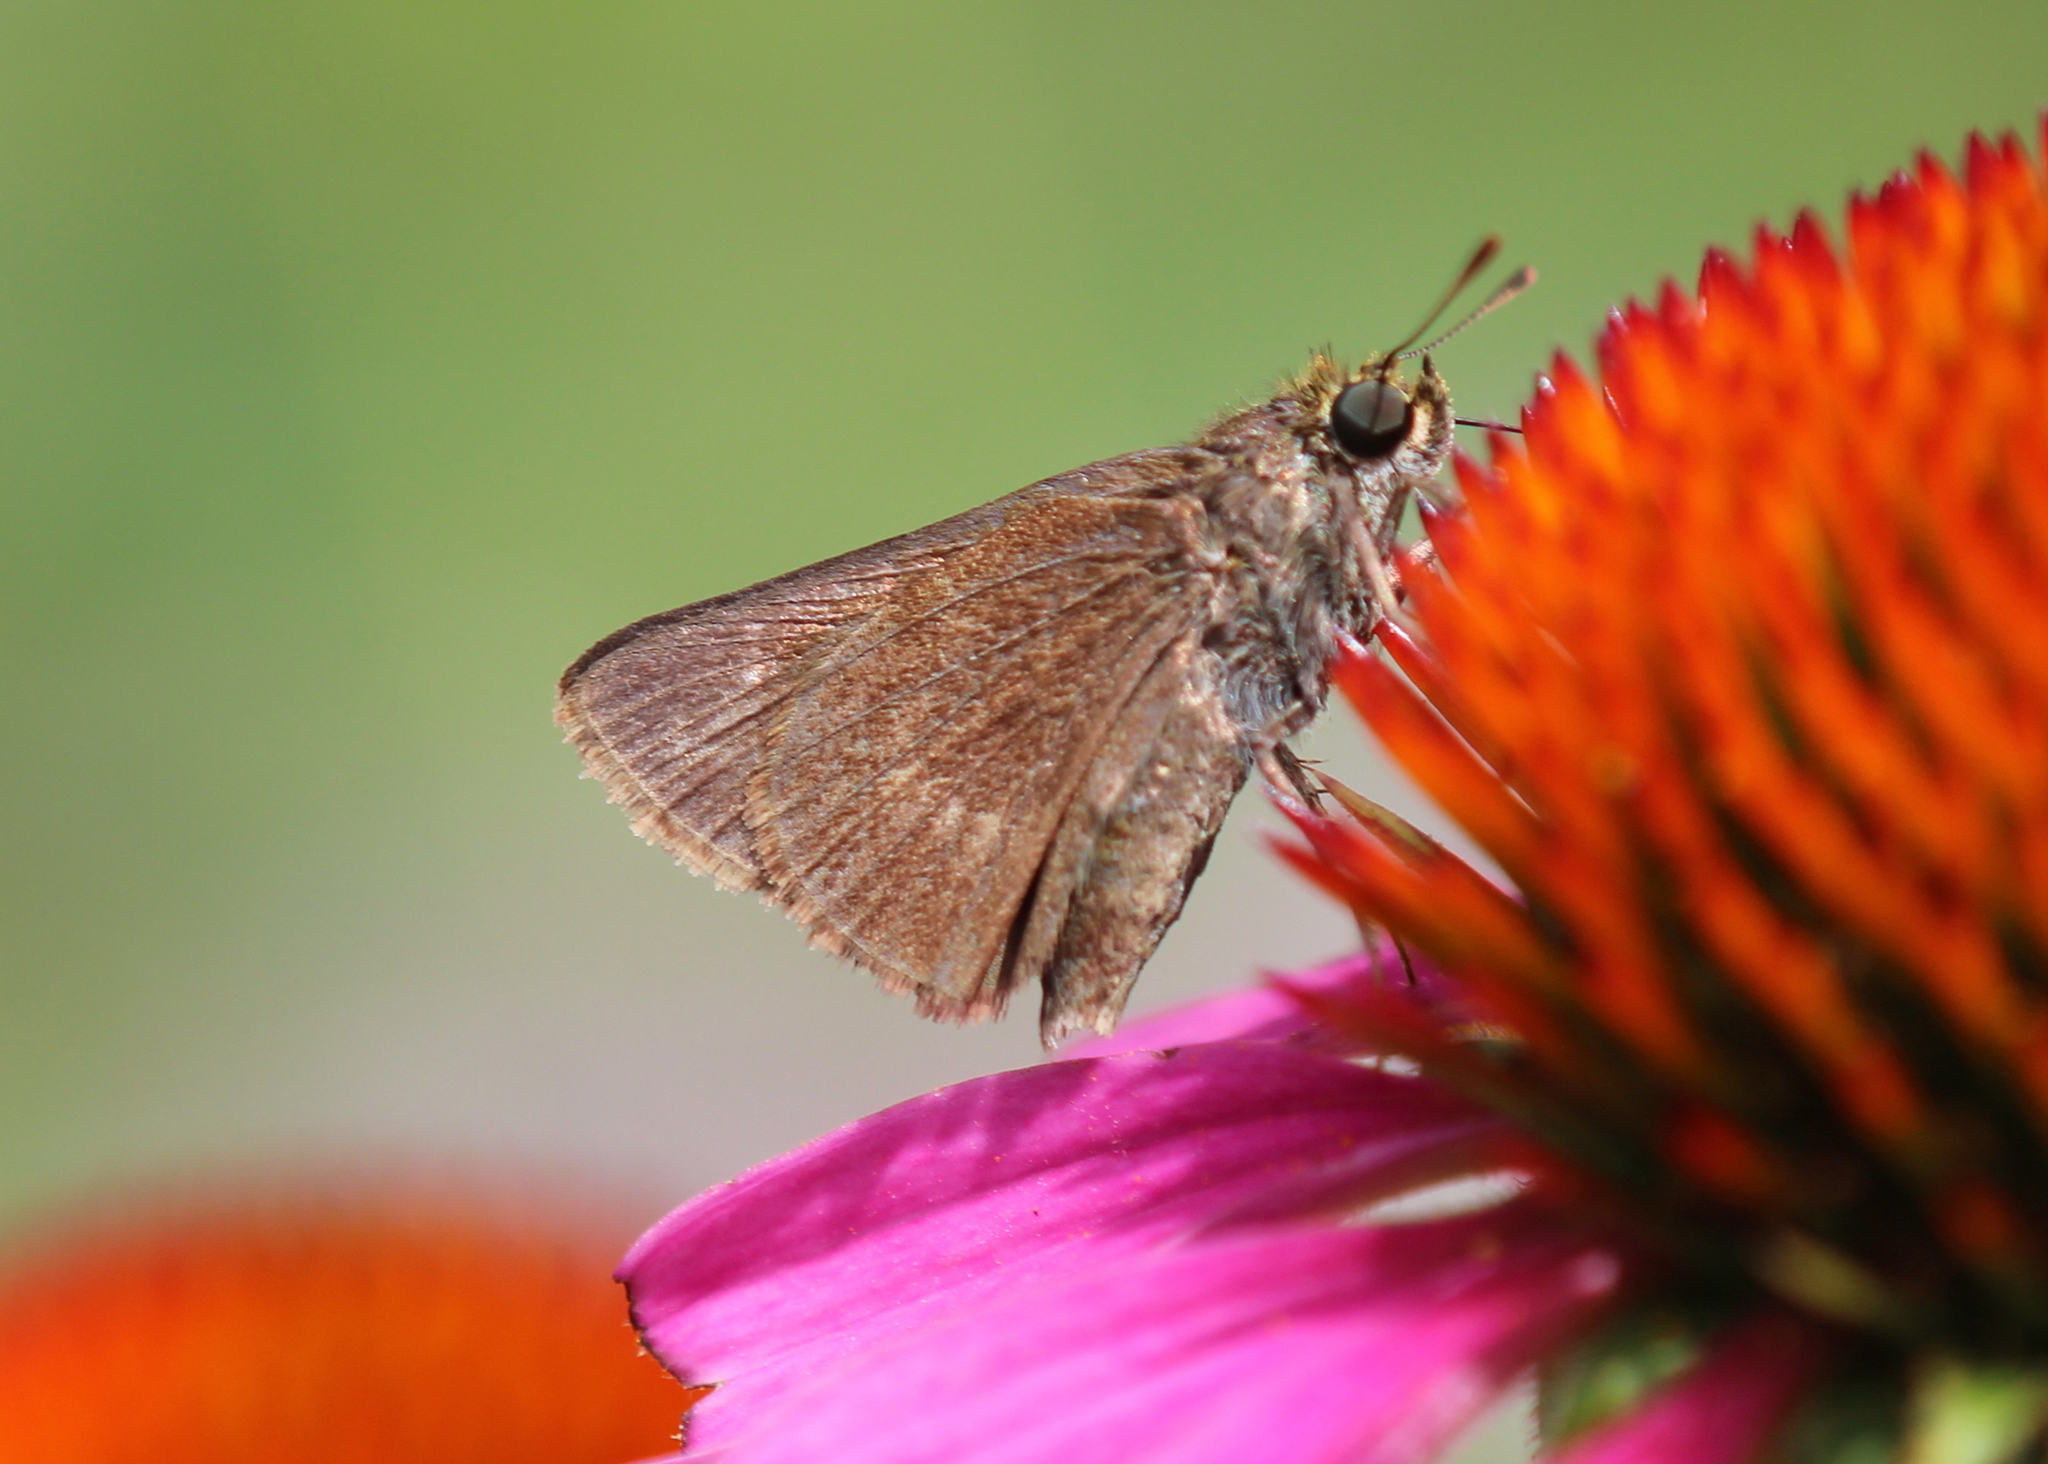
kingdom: Animalia
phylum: Arthropoda
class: Insecta
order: Lepidoptera
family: Hesperiidae
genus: Euphyes
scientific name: Euphyes vestris
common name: Dun skipper
